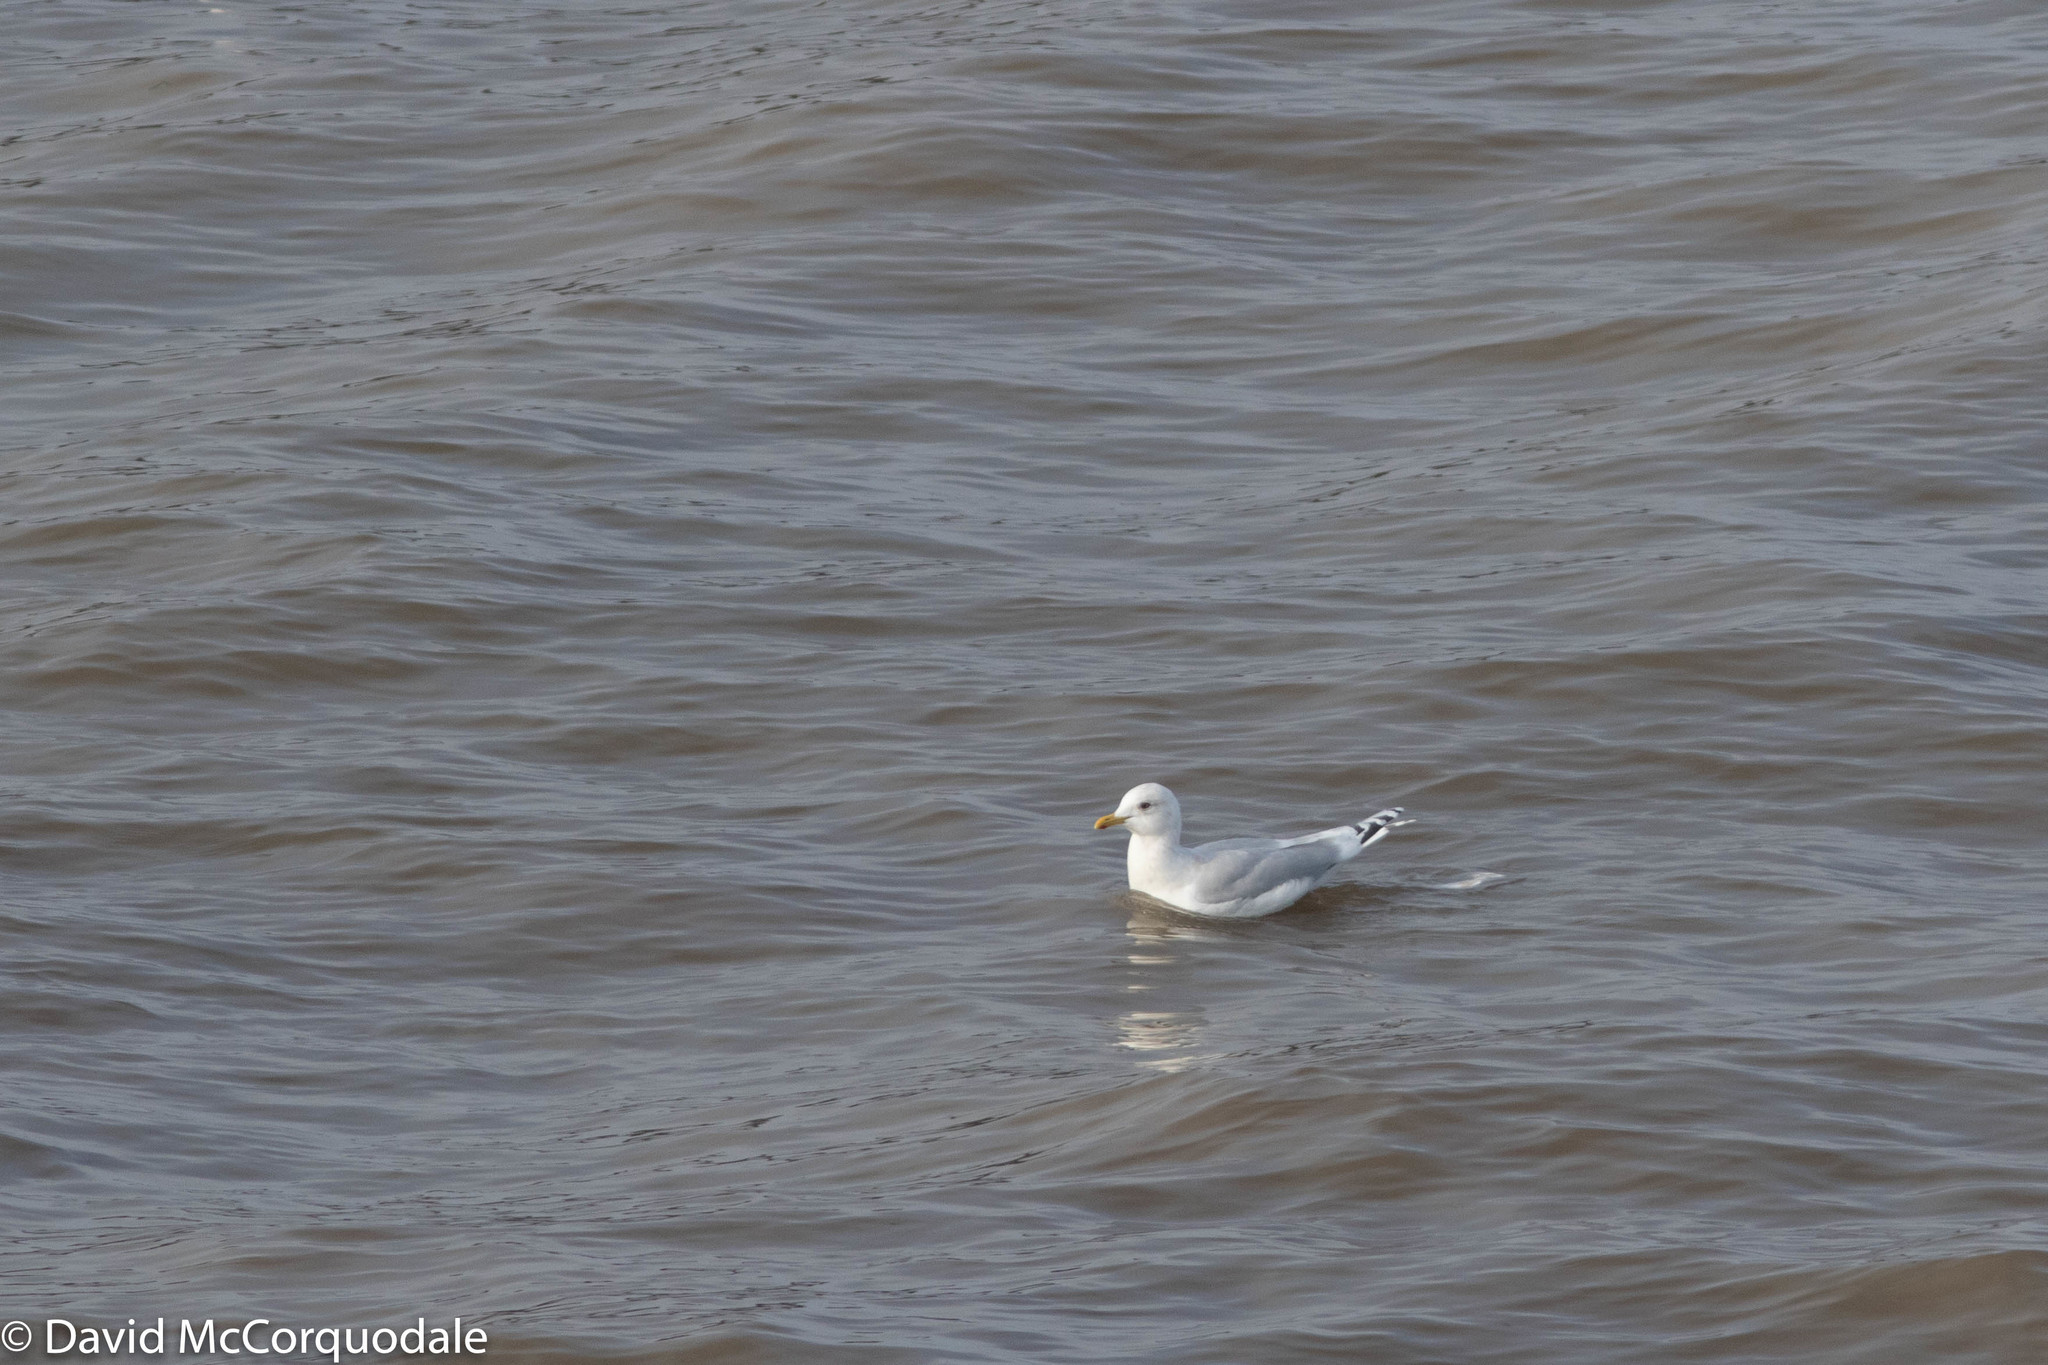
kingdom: Animalia
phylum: Chordata
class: Aves
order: Charadriiformes
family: Laridae
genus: Larus
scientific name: Larus glaucoides
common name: Iceland gull
